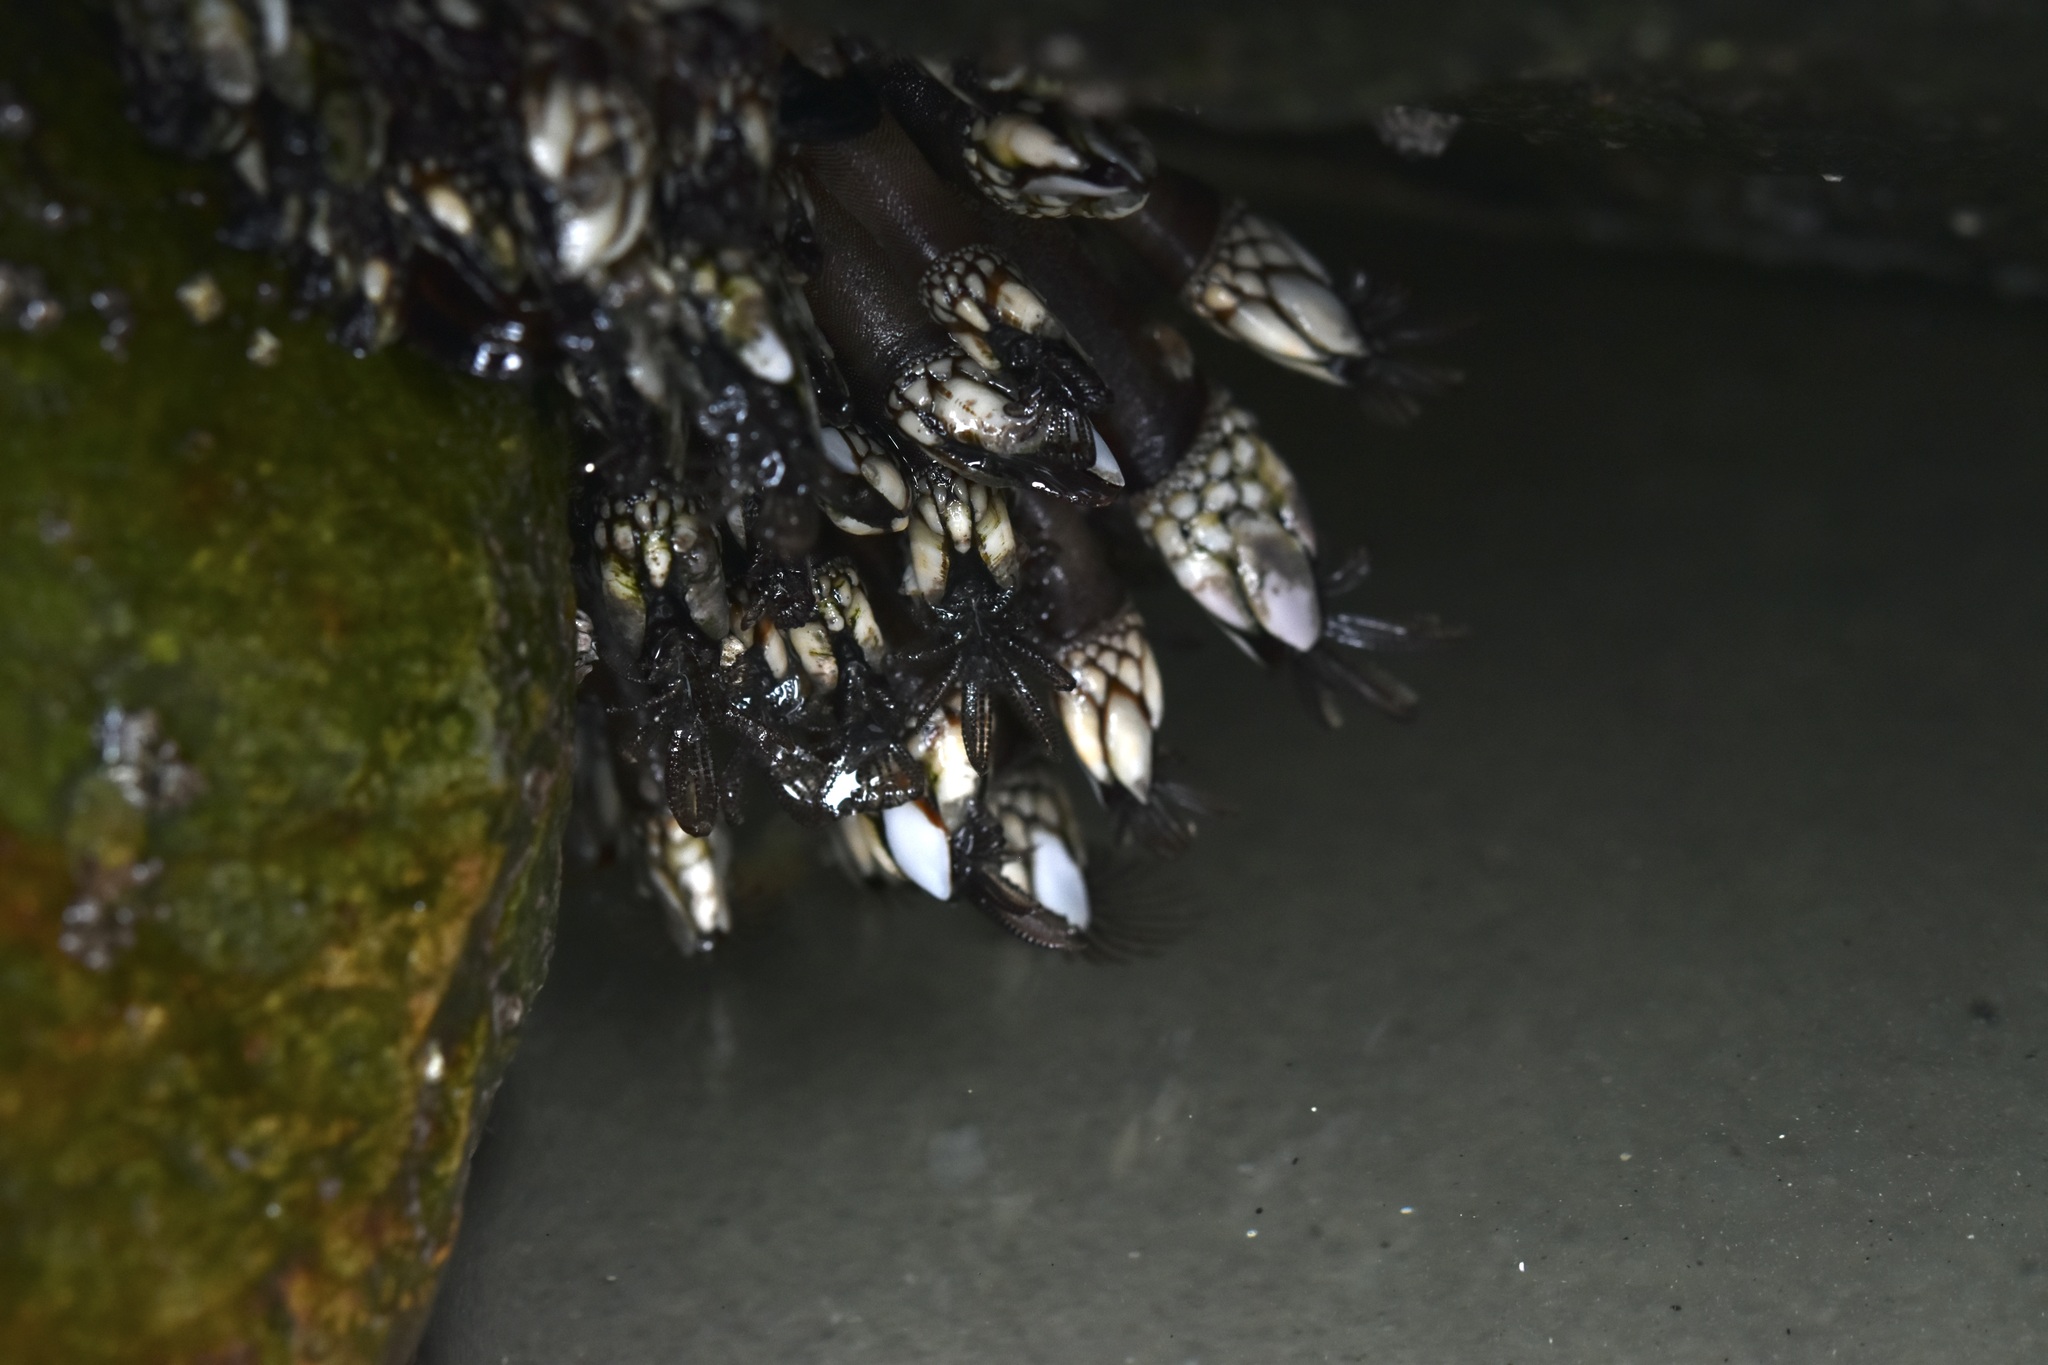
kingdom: Animalia
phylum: Arthropoda
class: Maxillopoda
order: Pedunculata
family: Pollicipedidae
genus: Pollicipes
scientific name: Pollicipes polymerus
